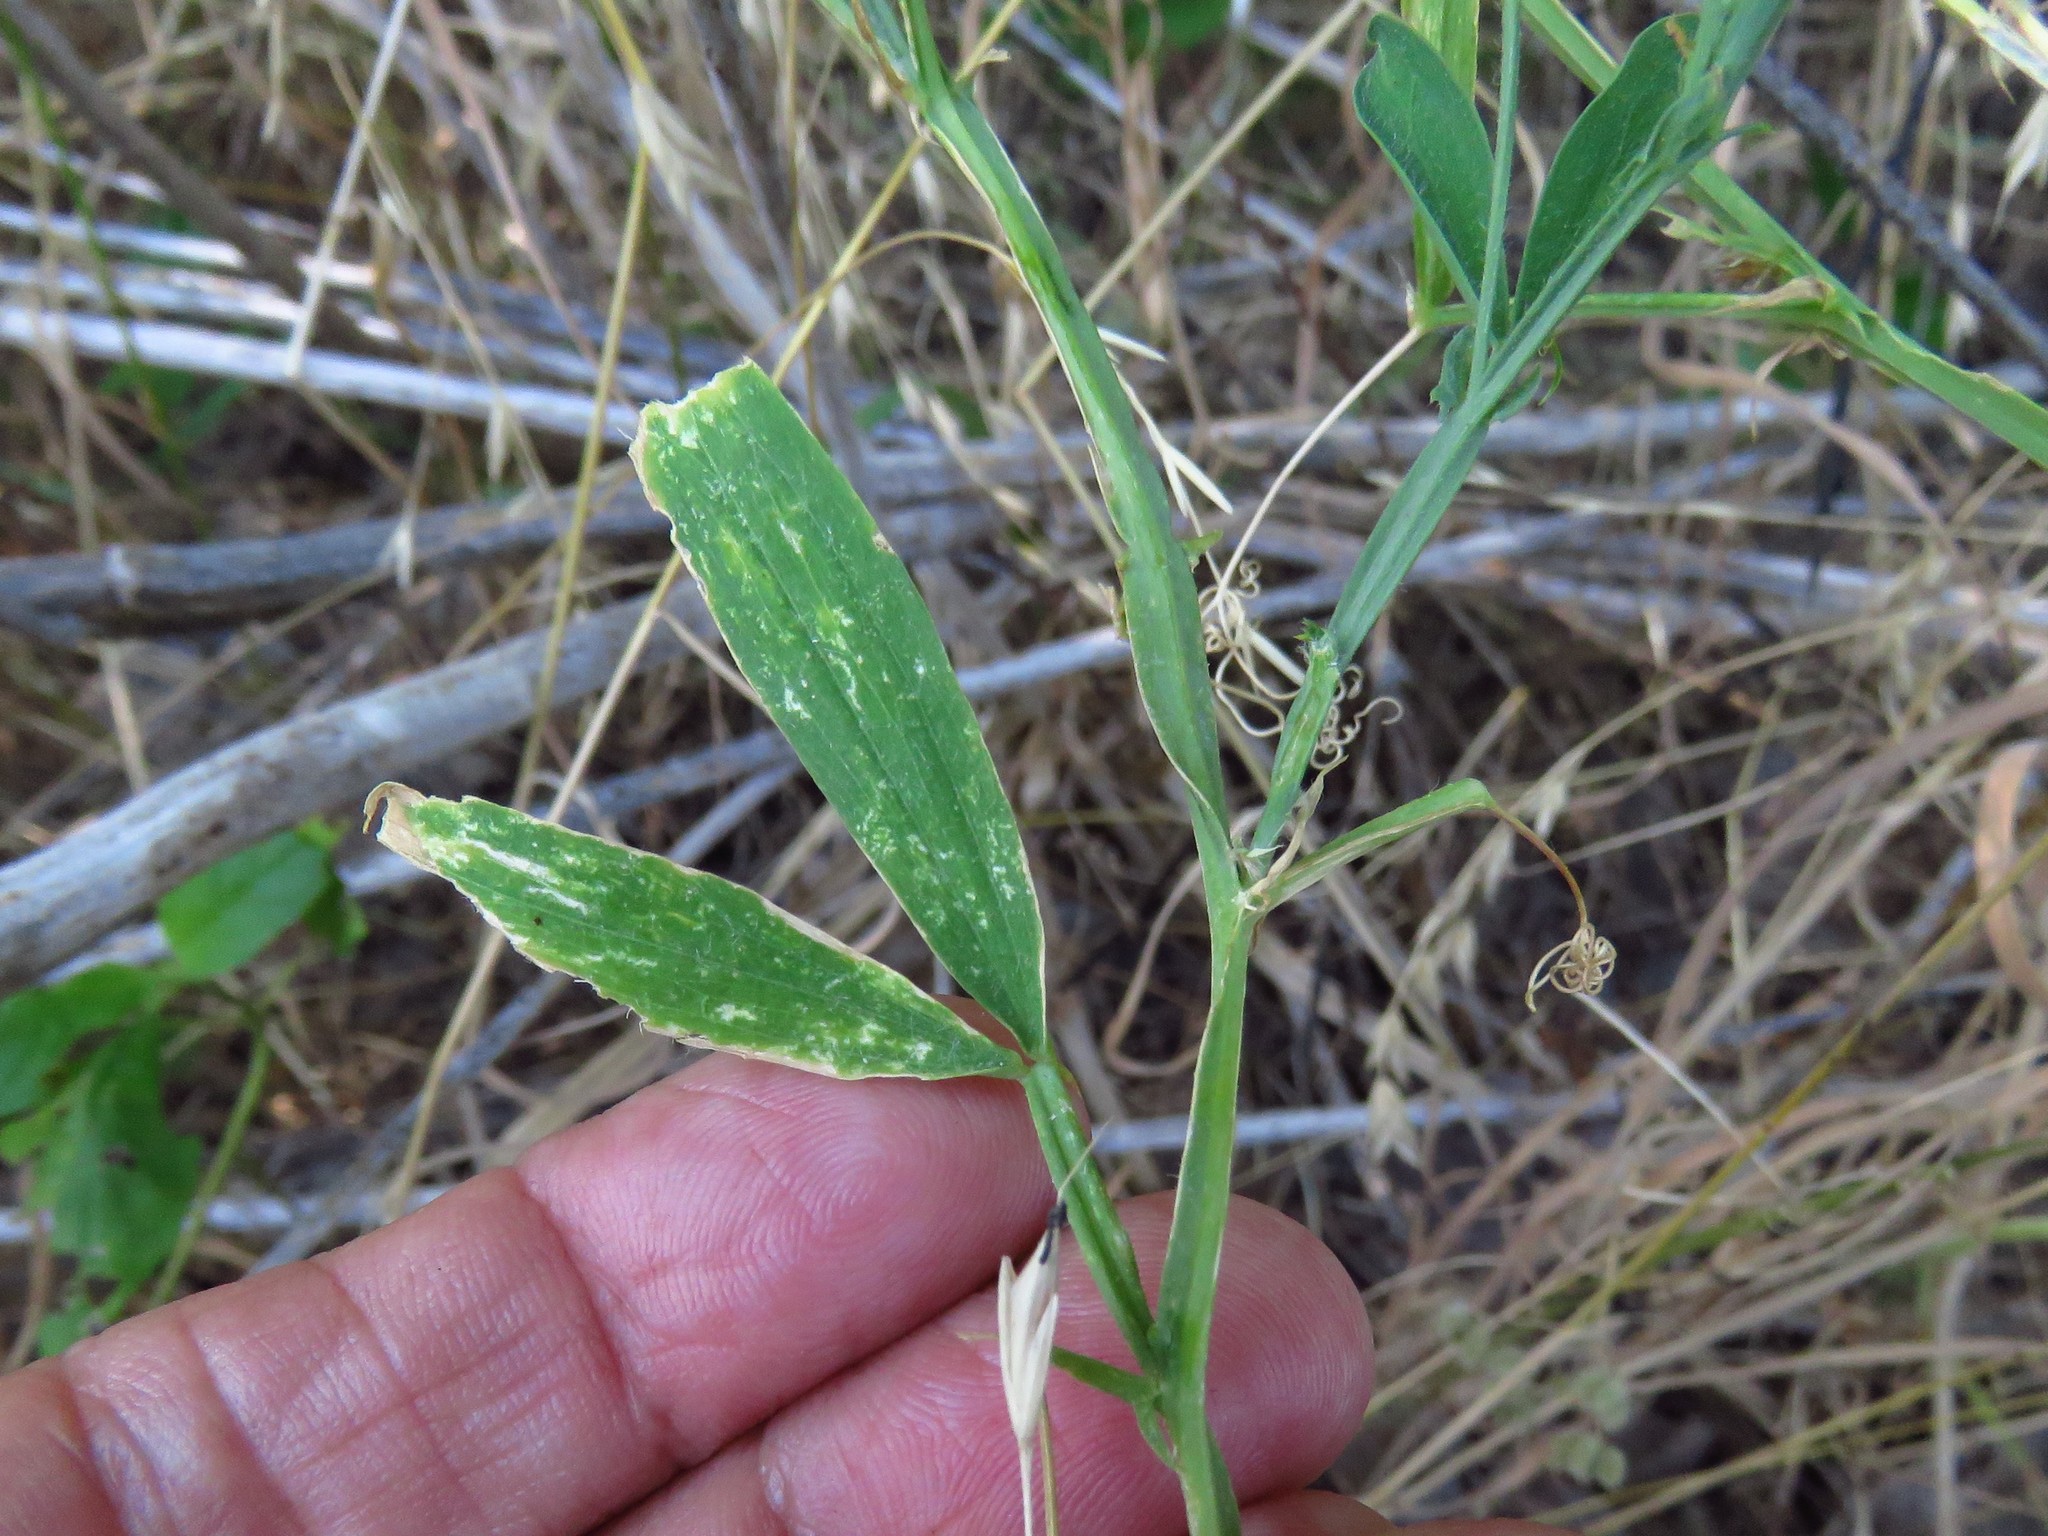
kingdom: Plantae
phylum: Tracheophyta
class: Magnoliopsida
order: Fabales
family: Fabaceae
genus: Lathyrus
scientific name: Lathyrus hirsutus
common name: Hairy vetchling
